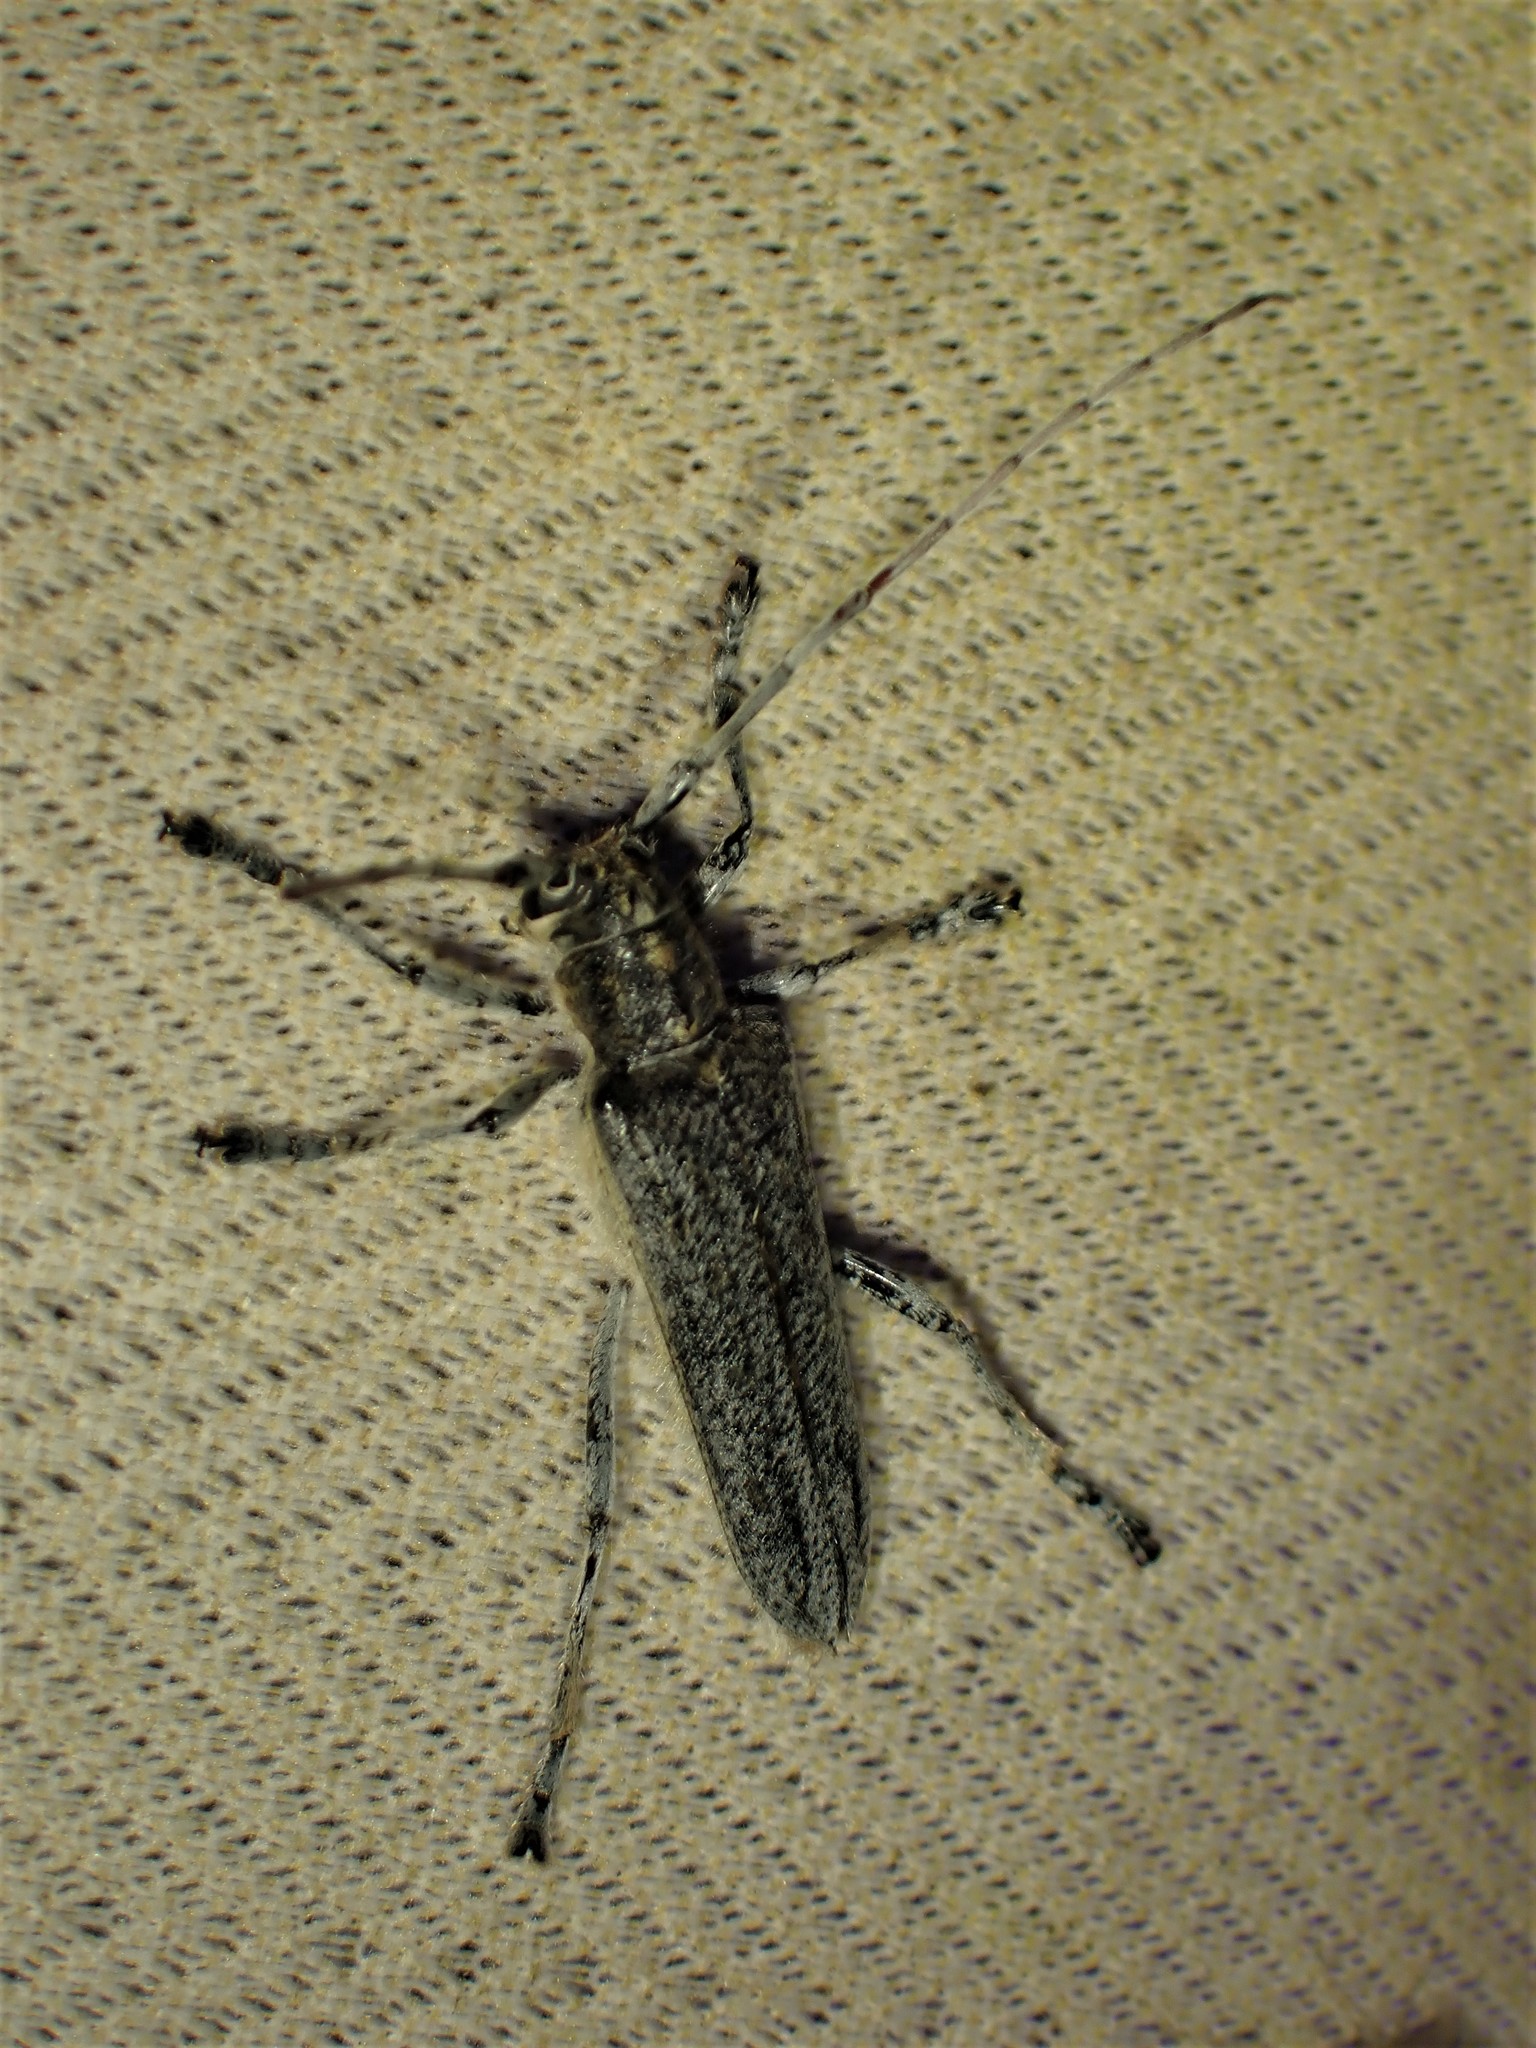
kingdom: Animalia
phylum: Arthropoda
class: Insecta
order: Coleoptera
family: Cerambycidae
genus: Saperda
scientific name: Saperda calcarata
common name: Poplar borer
